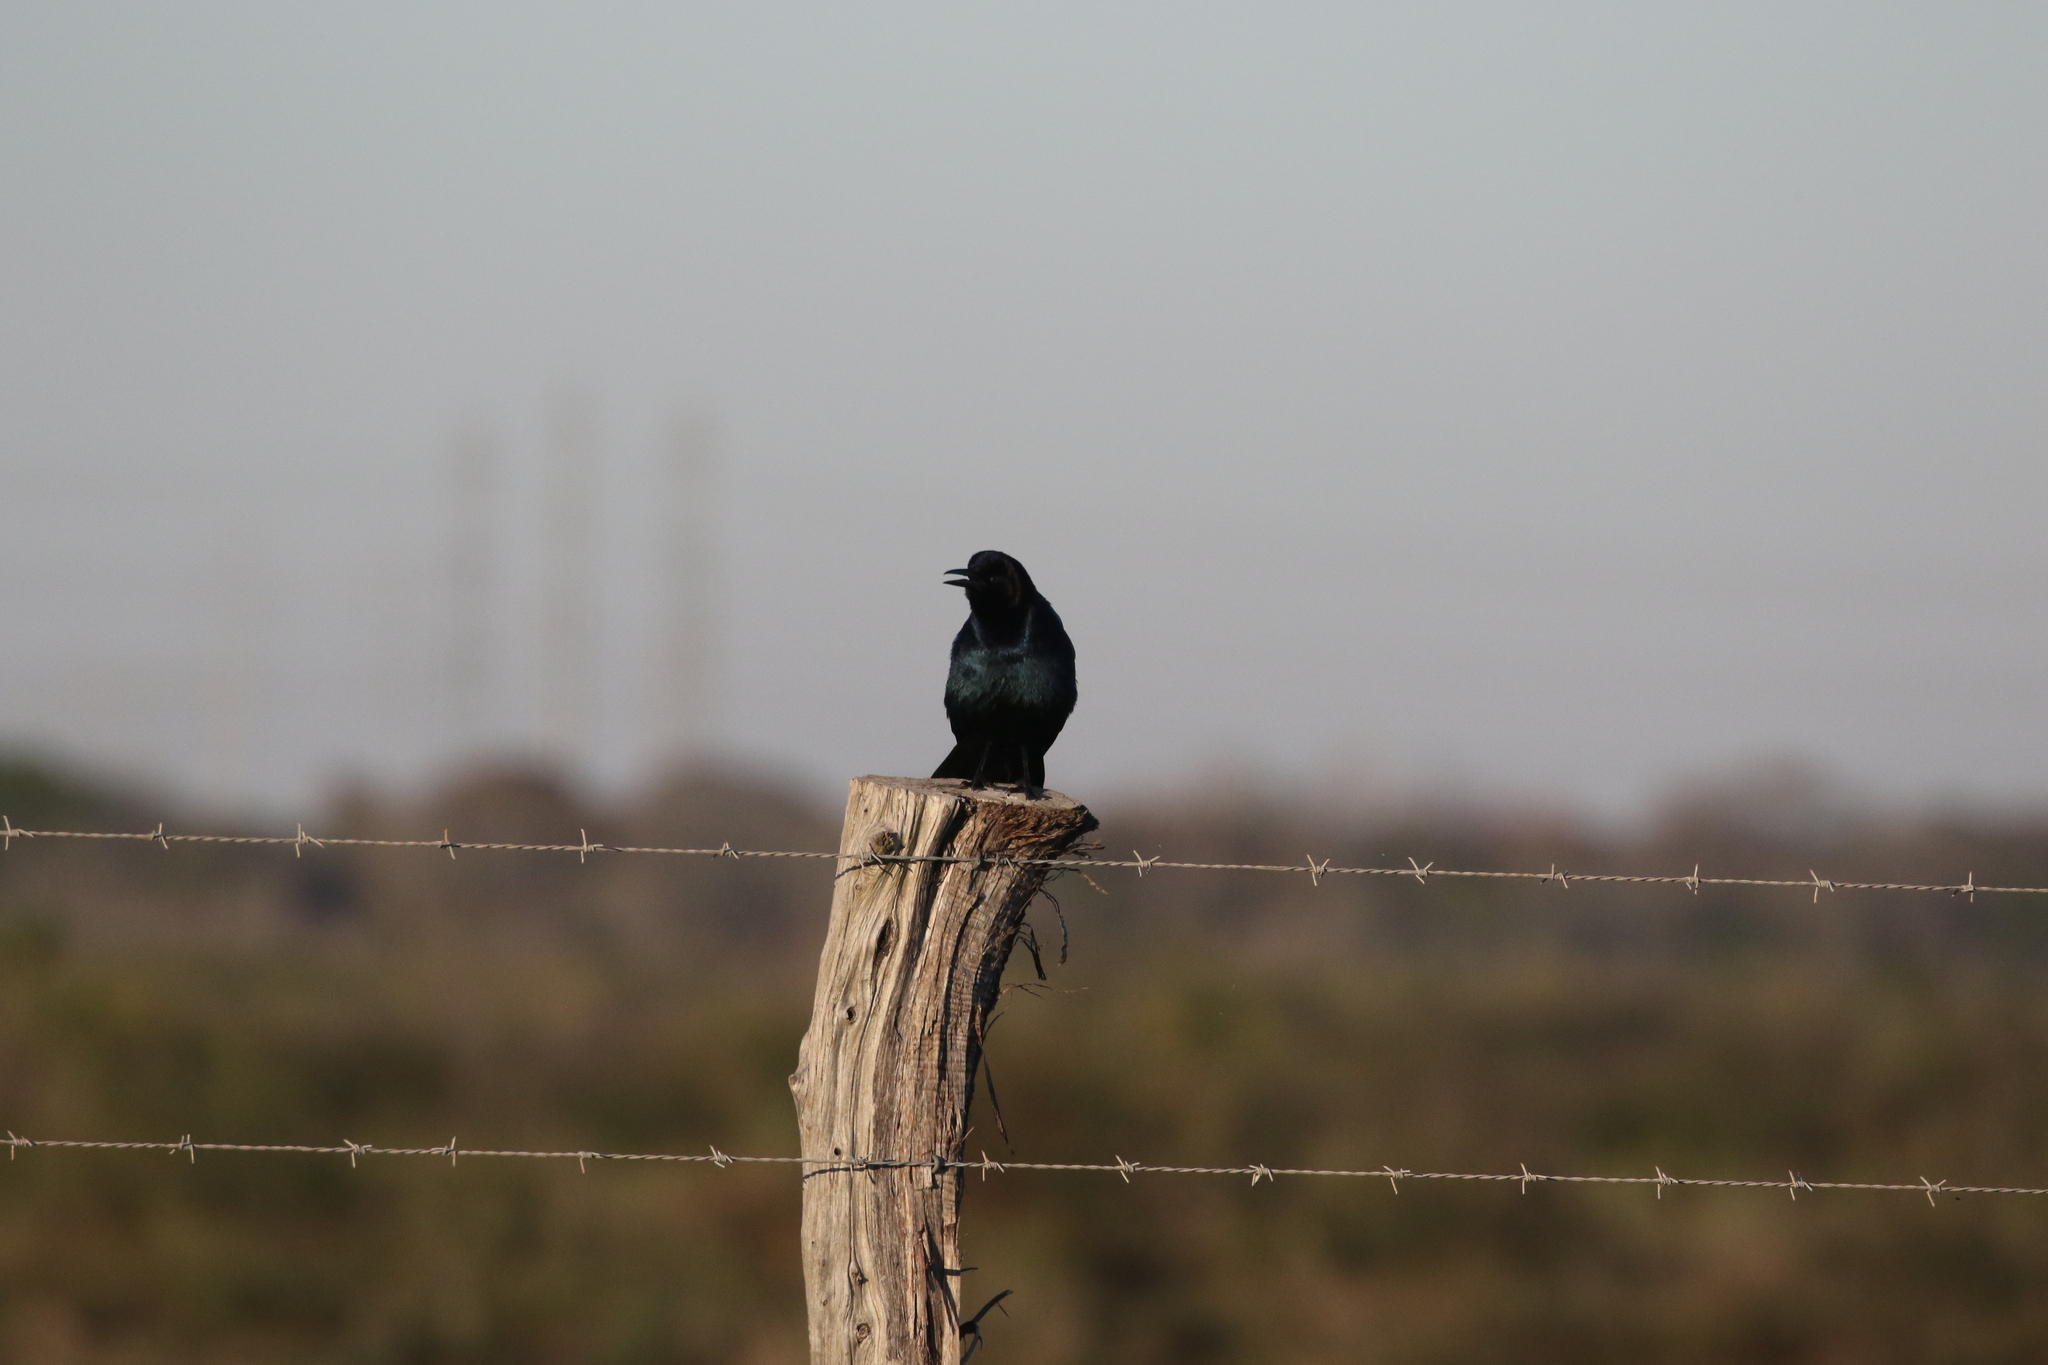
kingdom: Animalia
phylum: Chordata
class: Aves
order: Passeriformes
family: Icteridae
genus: Quiscalus
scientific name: Quiscalus major
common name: Boat-tailed grackle
